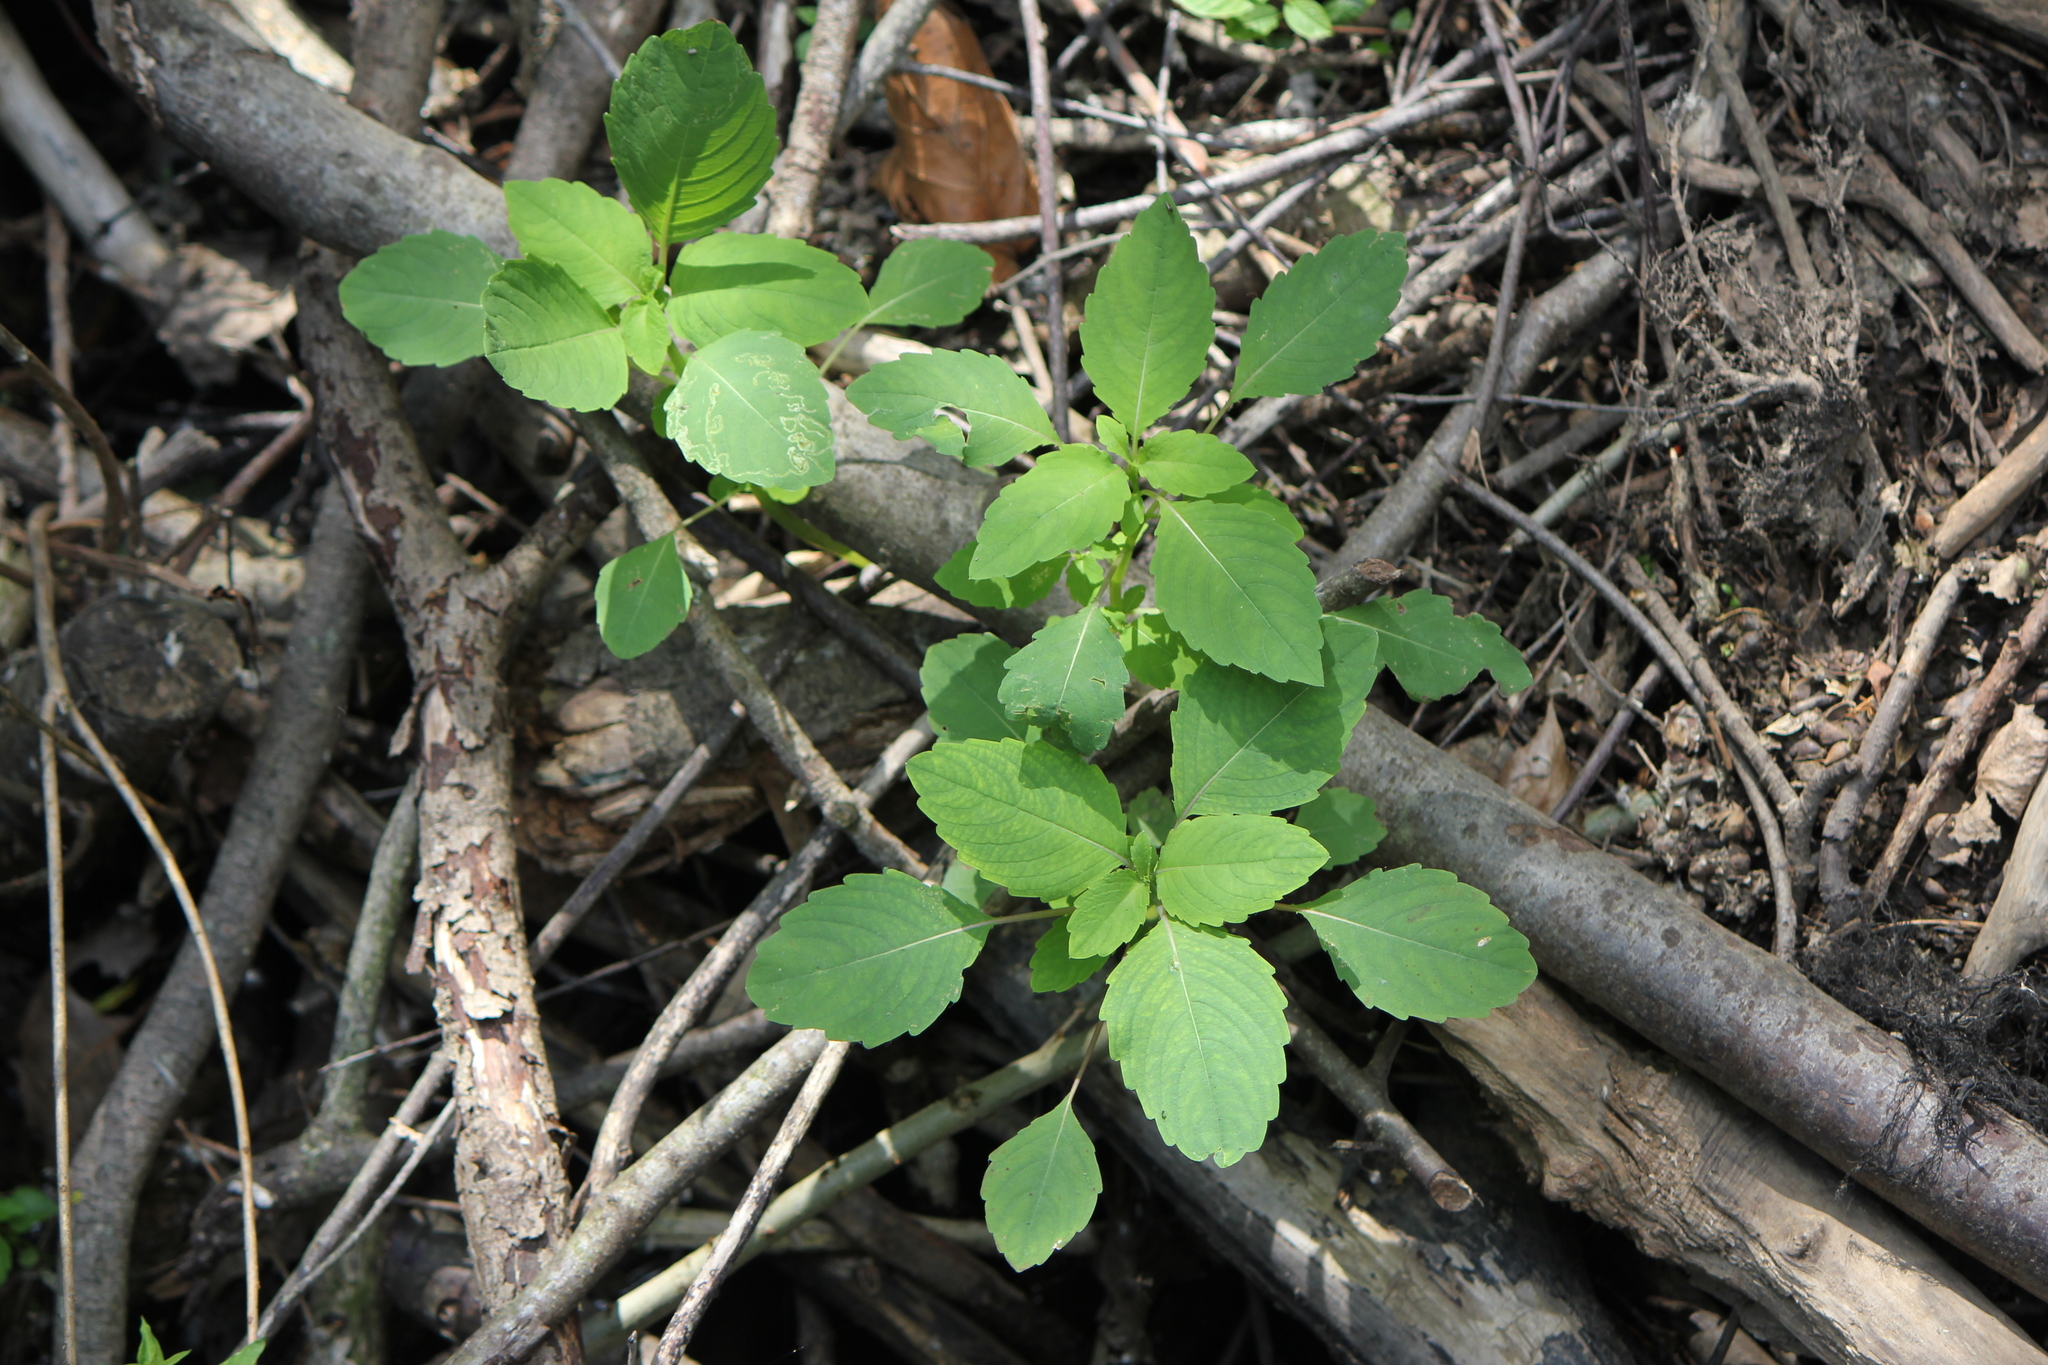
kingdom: Plantae
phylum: Tracheophyta
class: Magnoliopsida
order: Ericales
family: Balsaminaceae
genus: Impatiens
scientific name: Impatiens capensis
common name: Orange balsam
